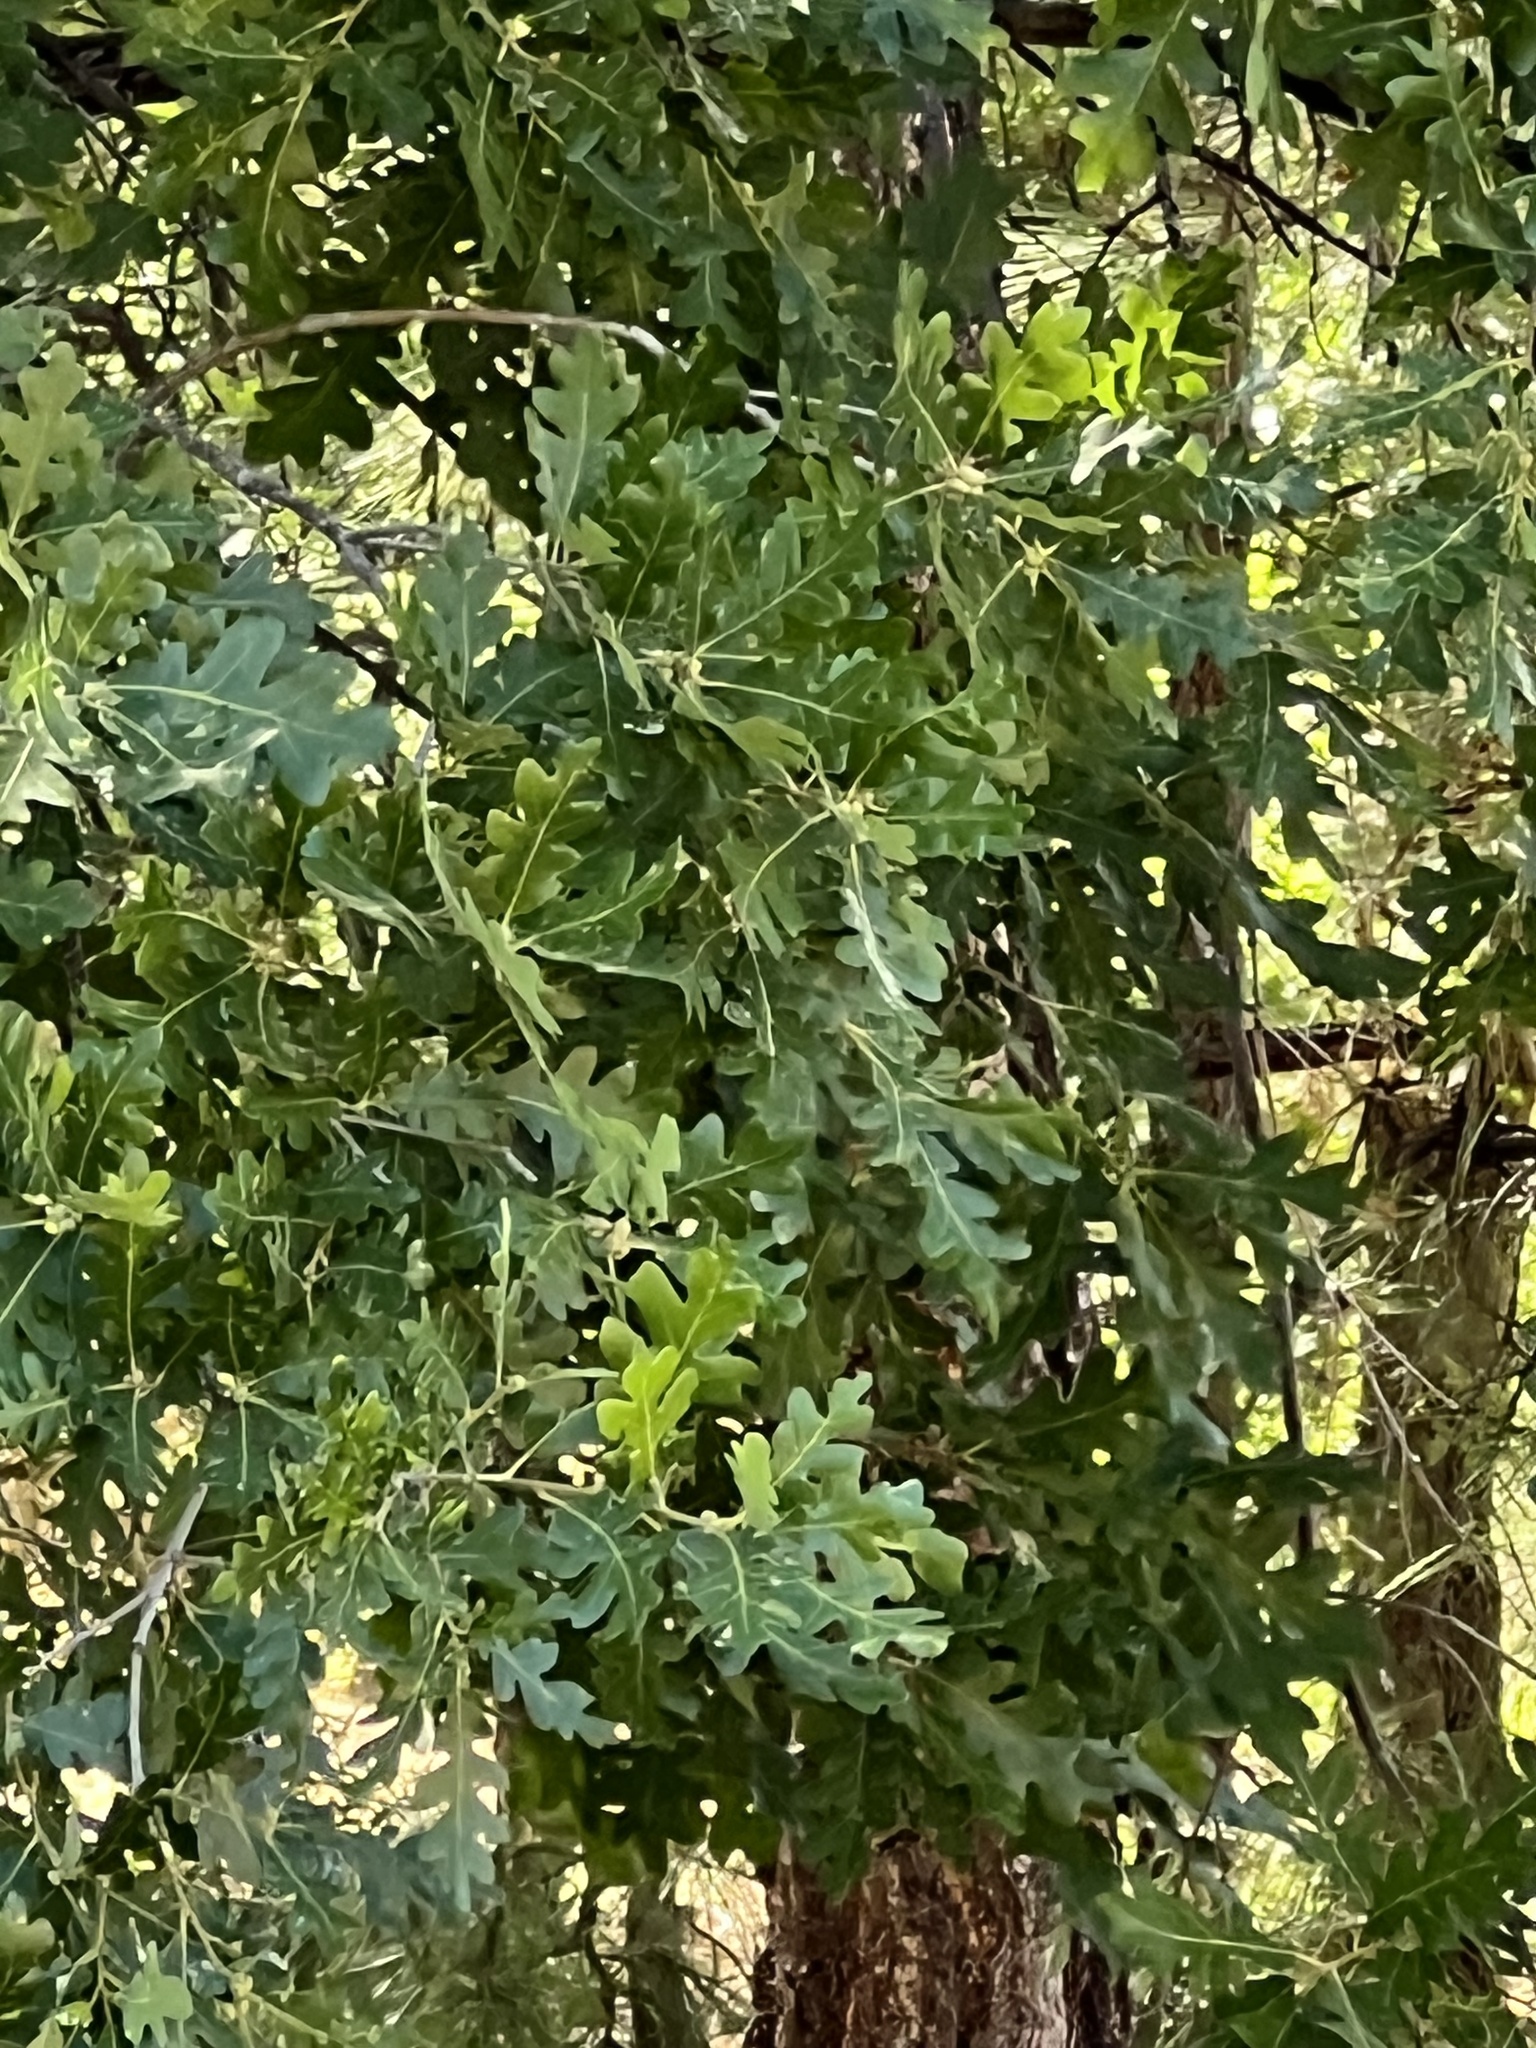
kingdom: Plantae
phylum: Tracheophyta
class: Magnoliopsida
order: Fagales
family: Fagaceae
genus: Quercus
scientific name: Quercus gambelii
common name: Gambel oak
